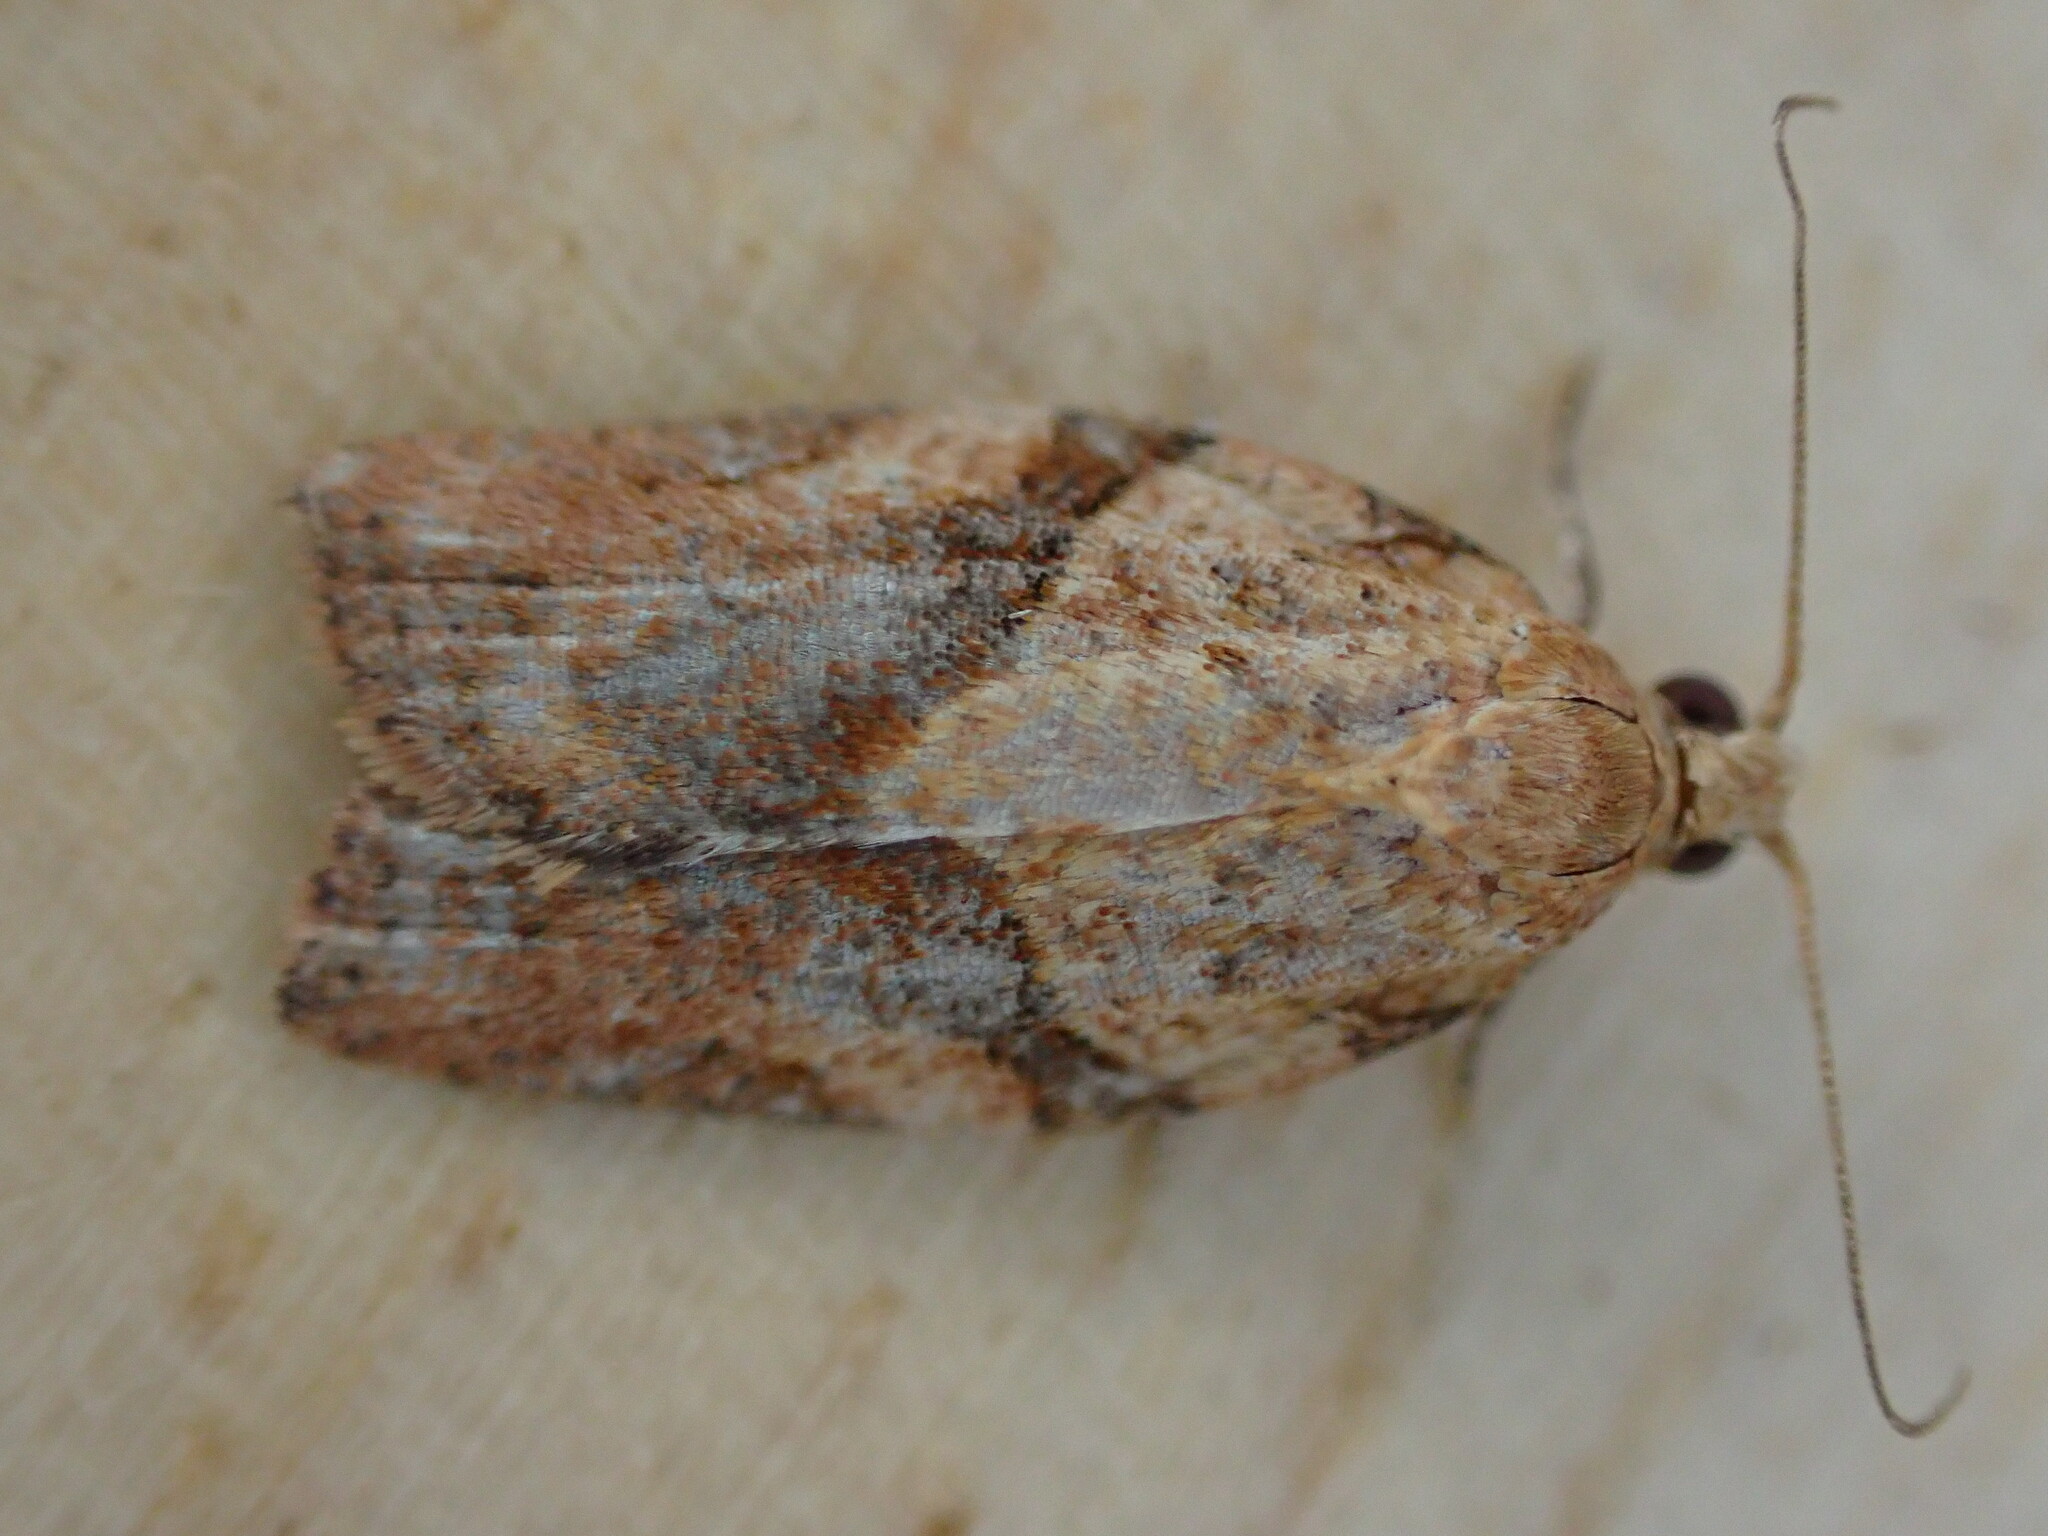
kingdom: Animalia
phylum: Arthropoda
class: Insecta
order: Lepidoptera
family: Tortricidae
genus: Epiphyas
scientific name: Epiphyas postvittana
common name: Light brown apple moth
